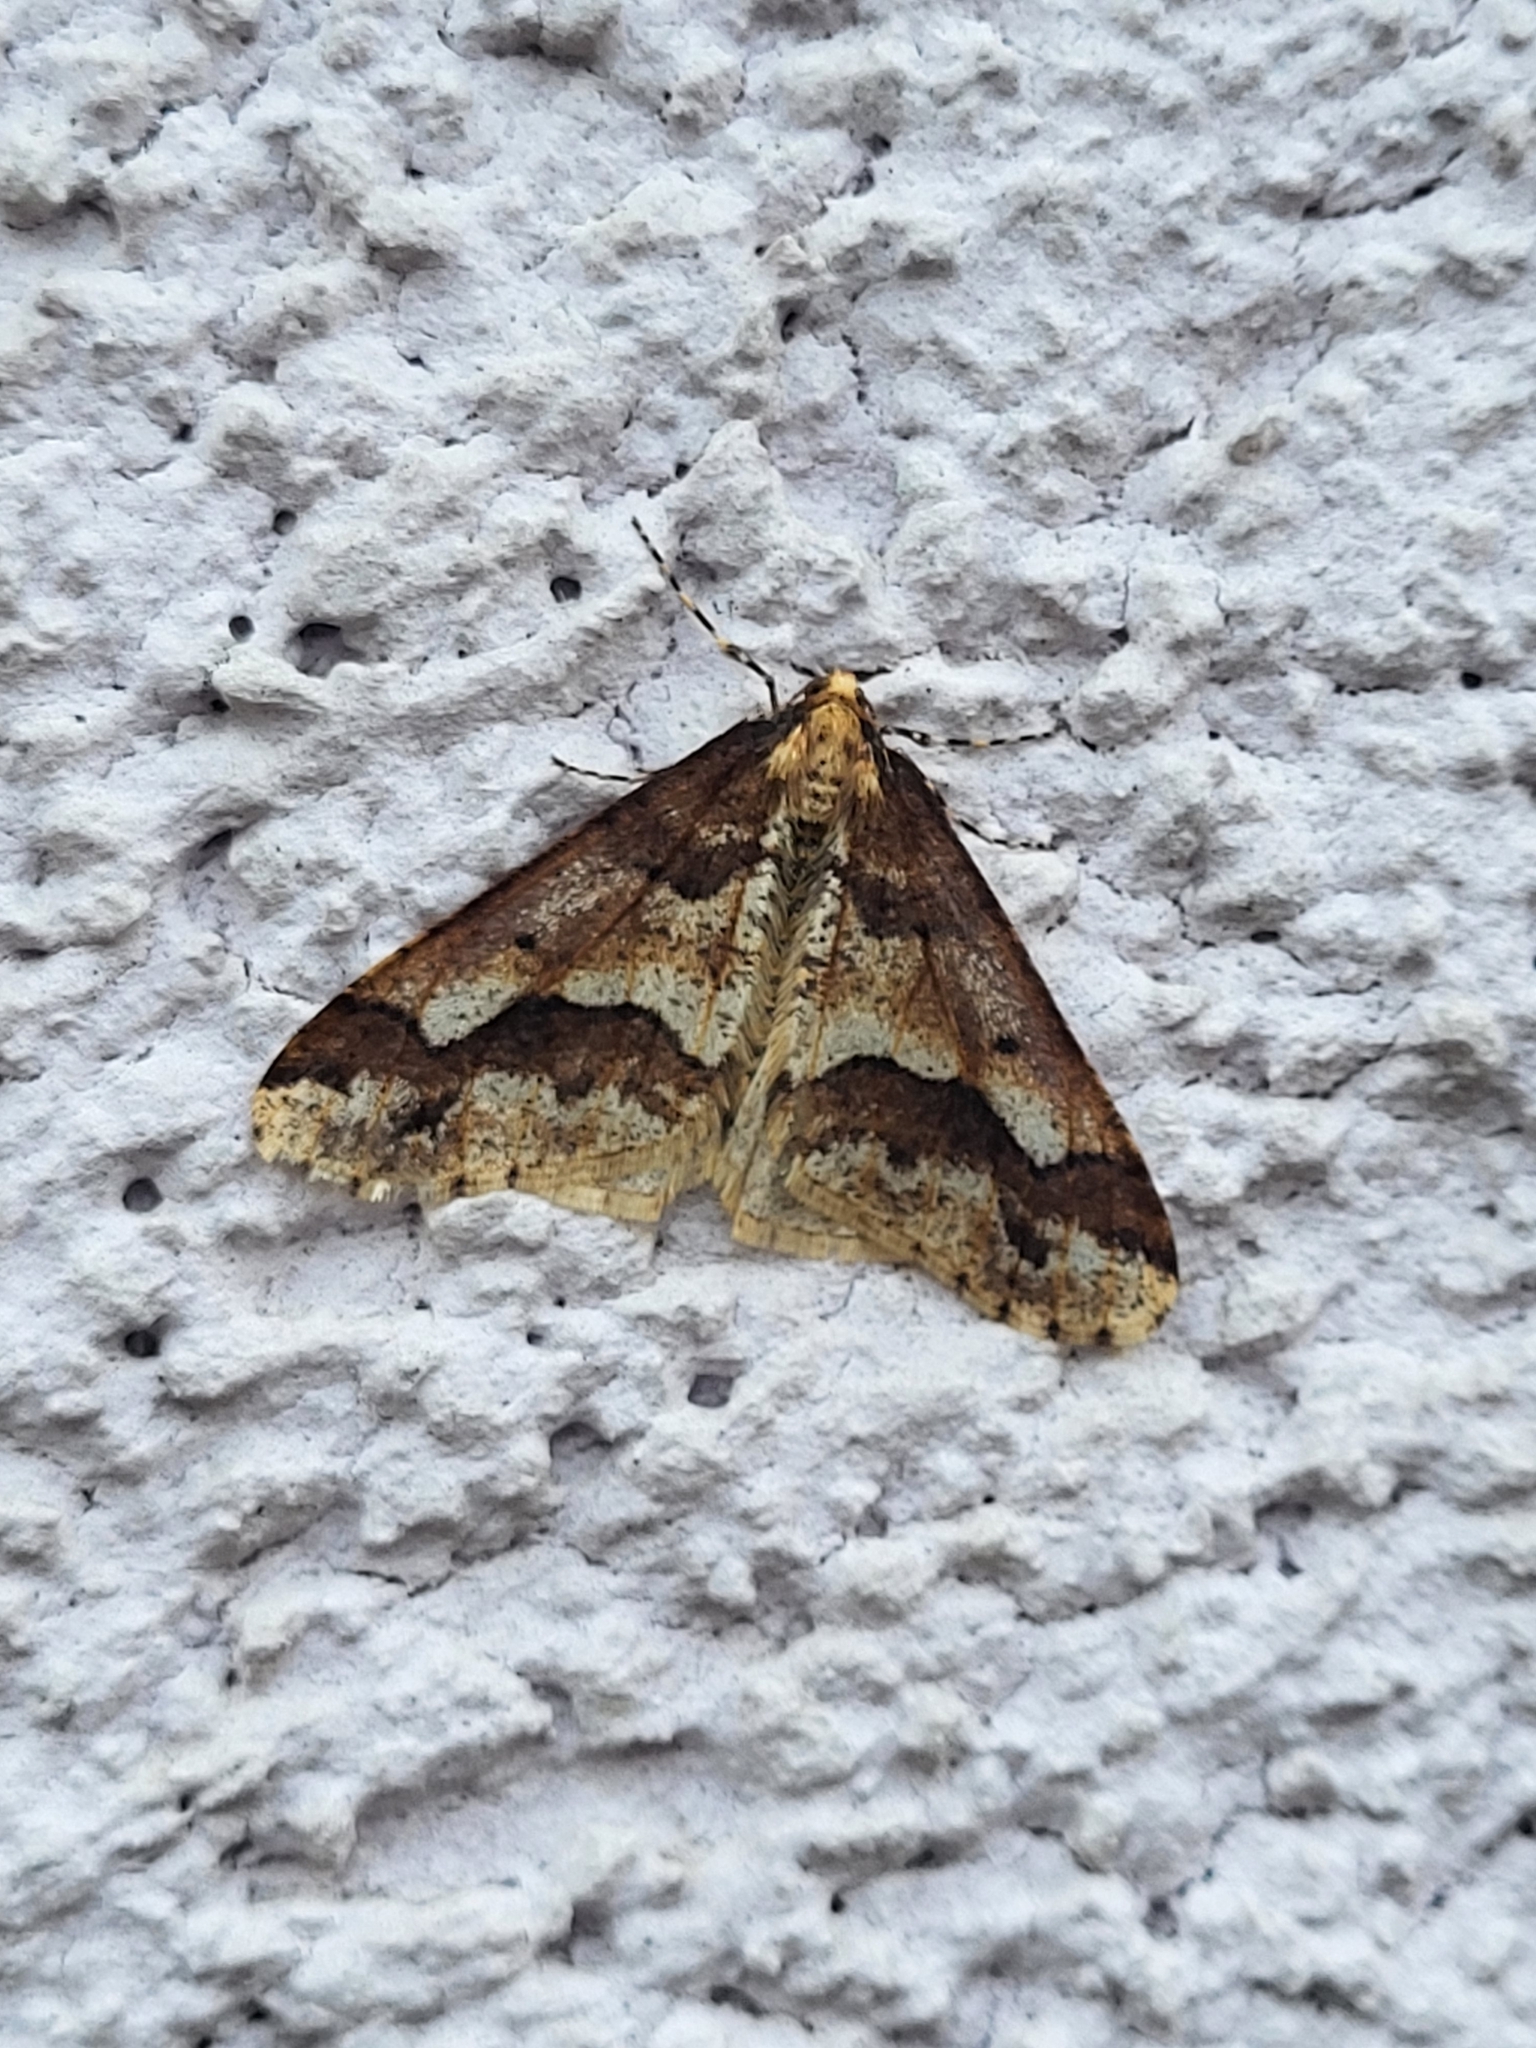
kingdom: Animalia
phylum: Arthropoda
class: Insecta
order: Lepidoptera
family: Geometridae
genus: Erannis
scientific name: Erannis defoliaria
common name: Mottled umber
